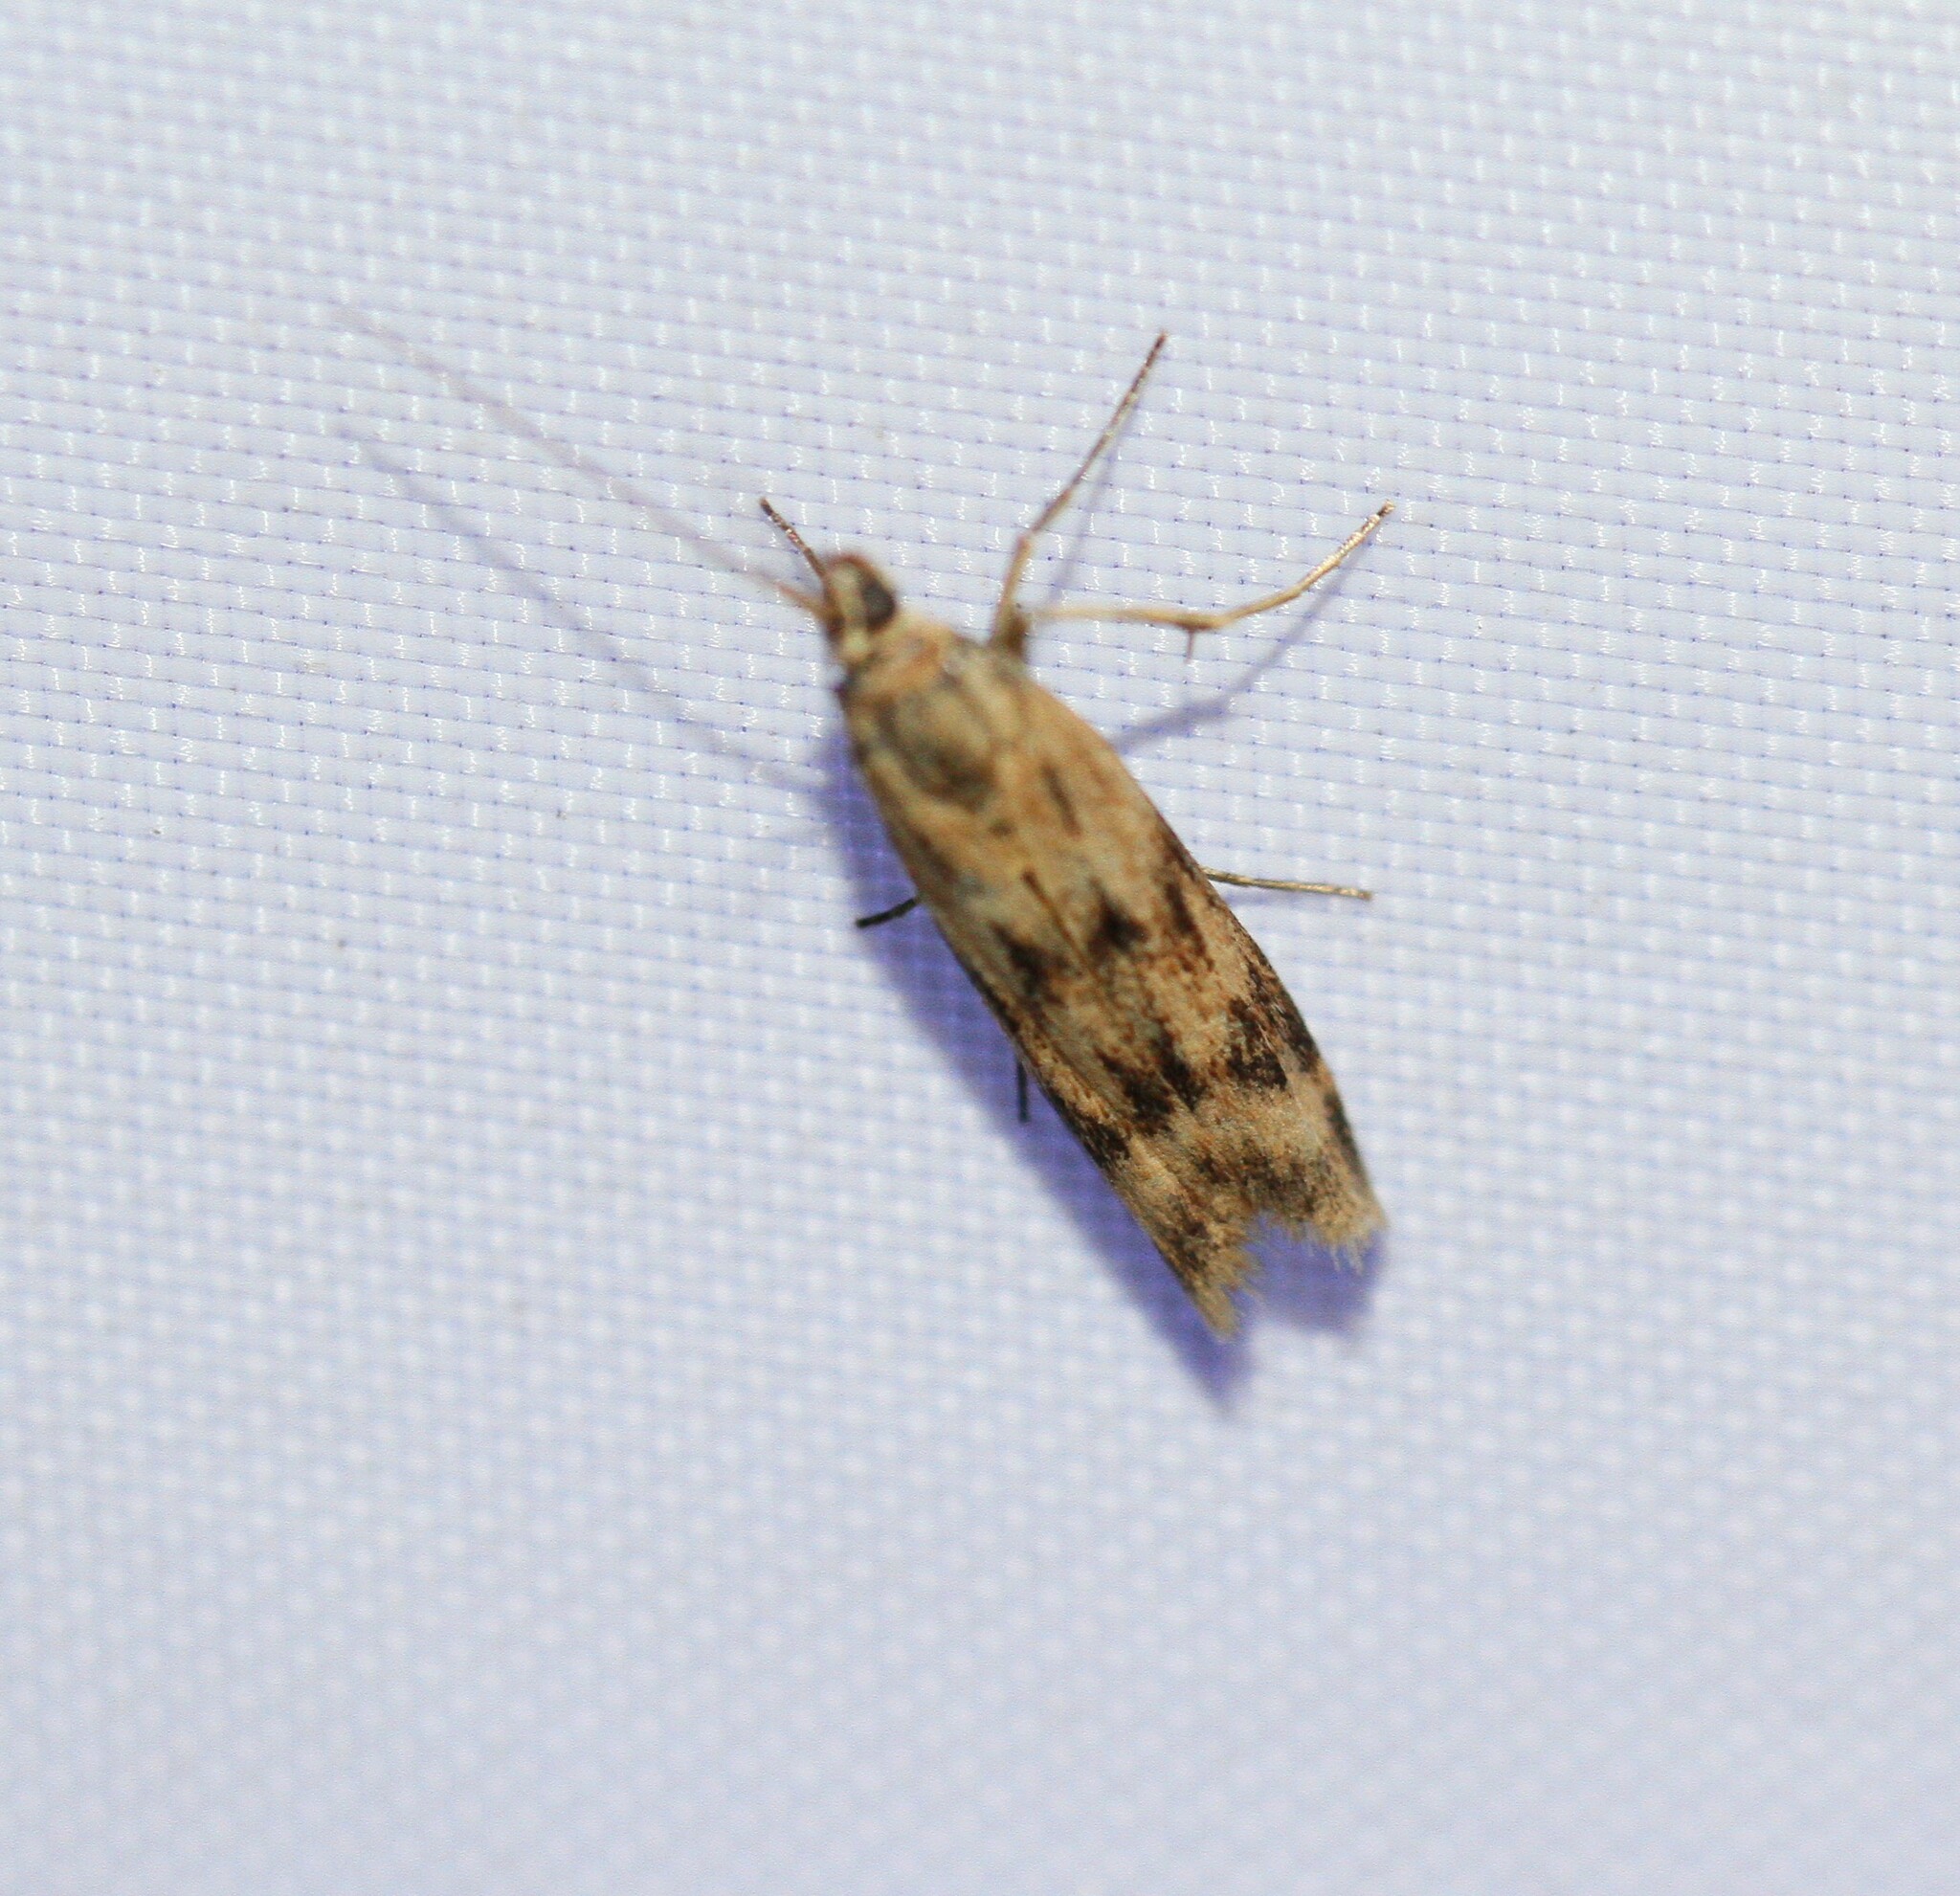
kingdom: Animalia
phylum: Arthropoda
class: Insecta
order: Lepidoptera
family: Pyralidae
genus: Homoeosoma
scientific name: Homoeosoma sinuella
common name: Twin-barred knot-horn
